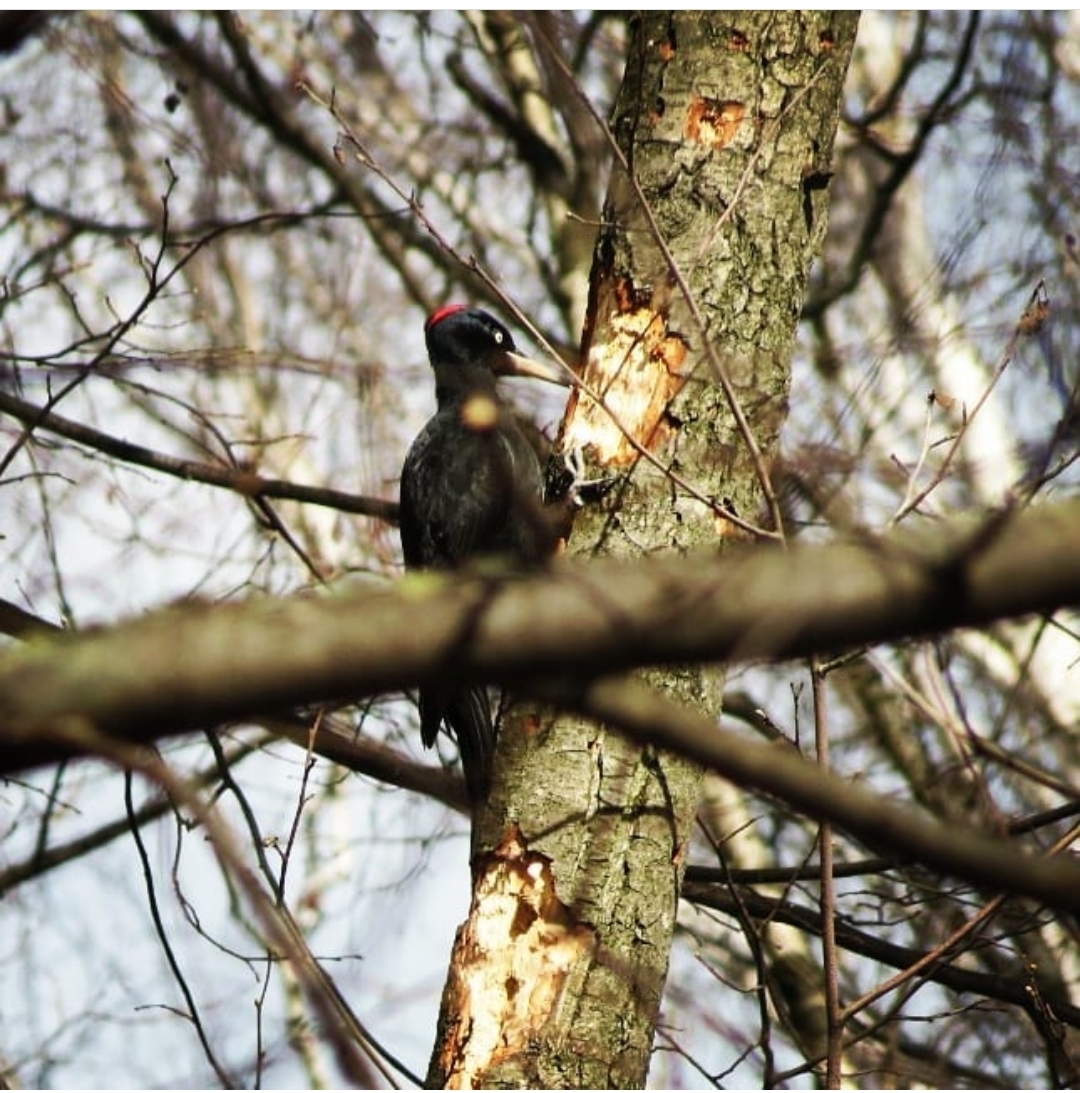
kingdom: Animalia
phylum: Chordata
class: Aves
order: Piciformes
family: Picidae
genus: Dryocopus
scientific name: Dryocopus martius
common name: Black woodpecker
